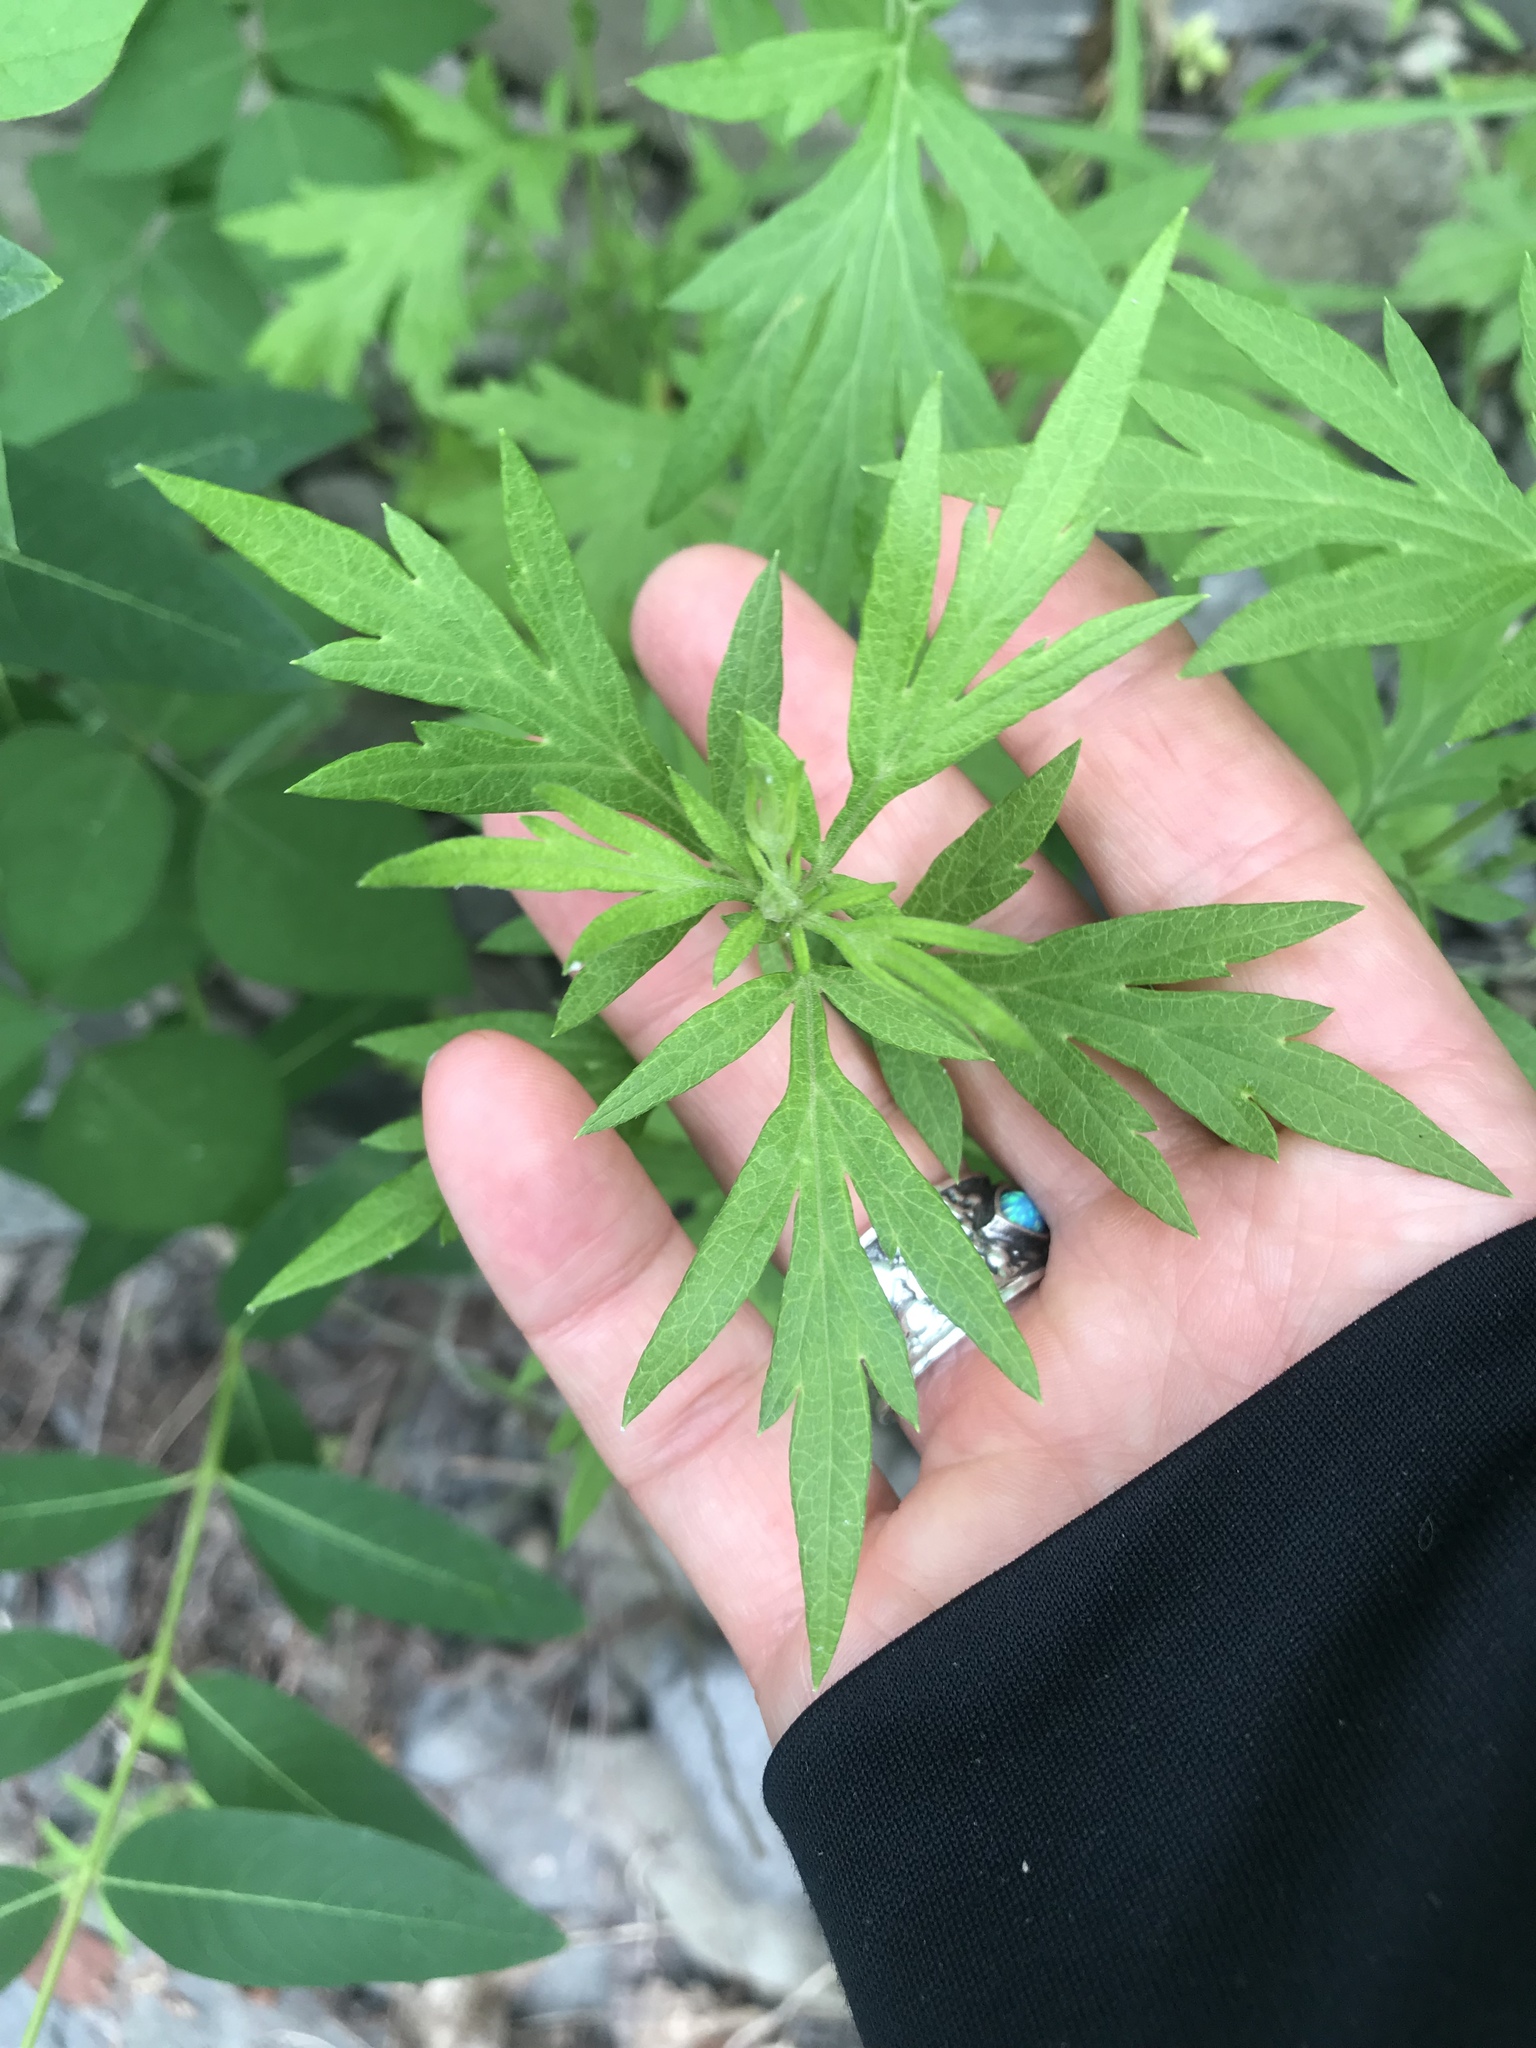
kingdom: Plantae
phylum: Tracheophyta
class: Magnoliopsida
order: Asterales
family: Asteraceae
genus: Artemisia
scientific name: Artemisia vulgaris
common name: Mugwort
